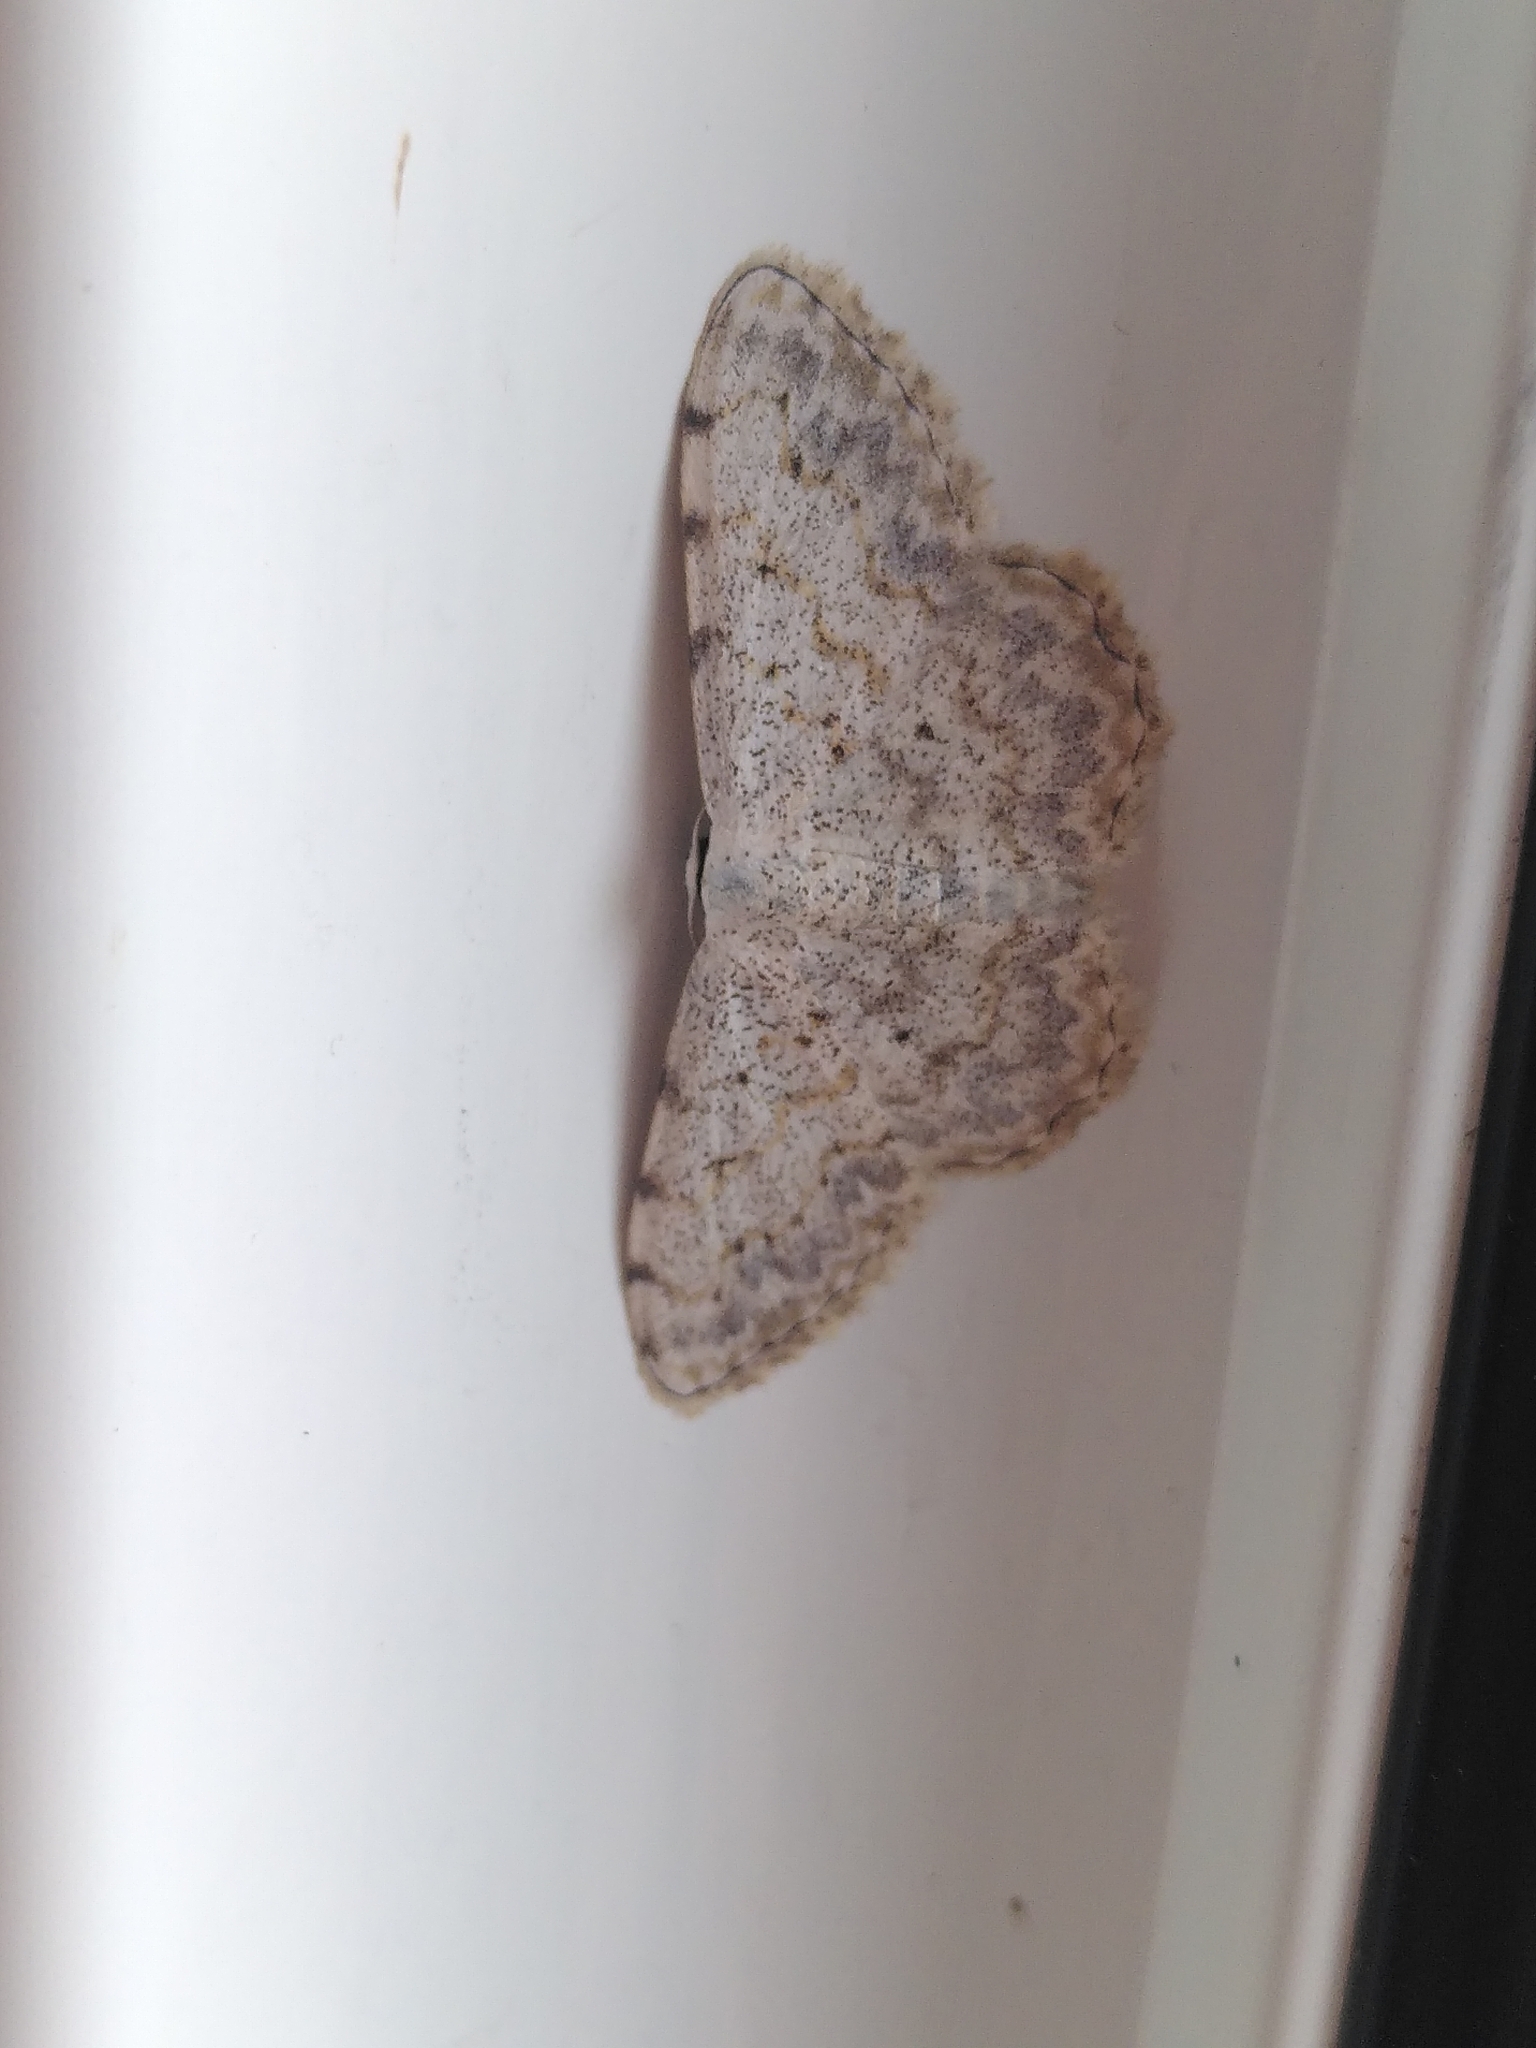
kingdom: Animalia
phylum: Arthropoda
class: Insecta
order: Lepidoptera
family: Geometridae
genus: Scopula
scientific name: Scopula submutata
